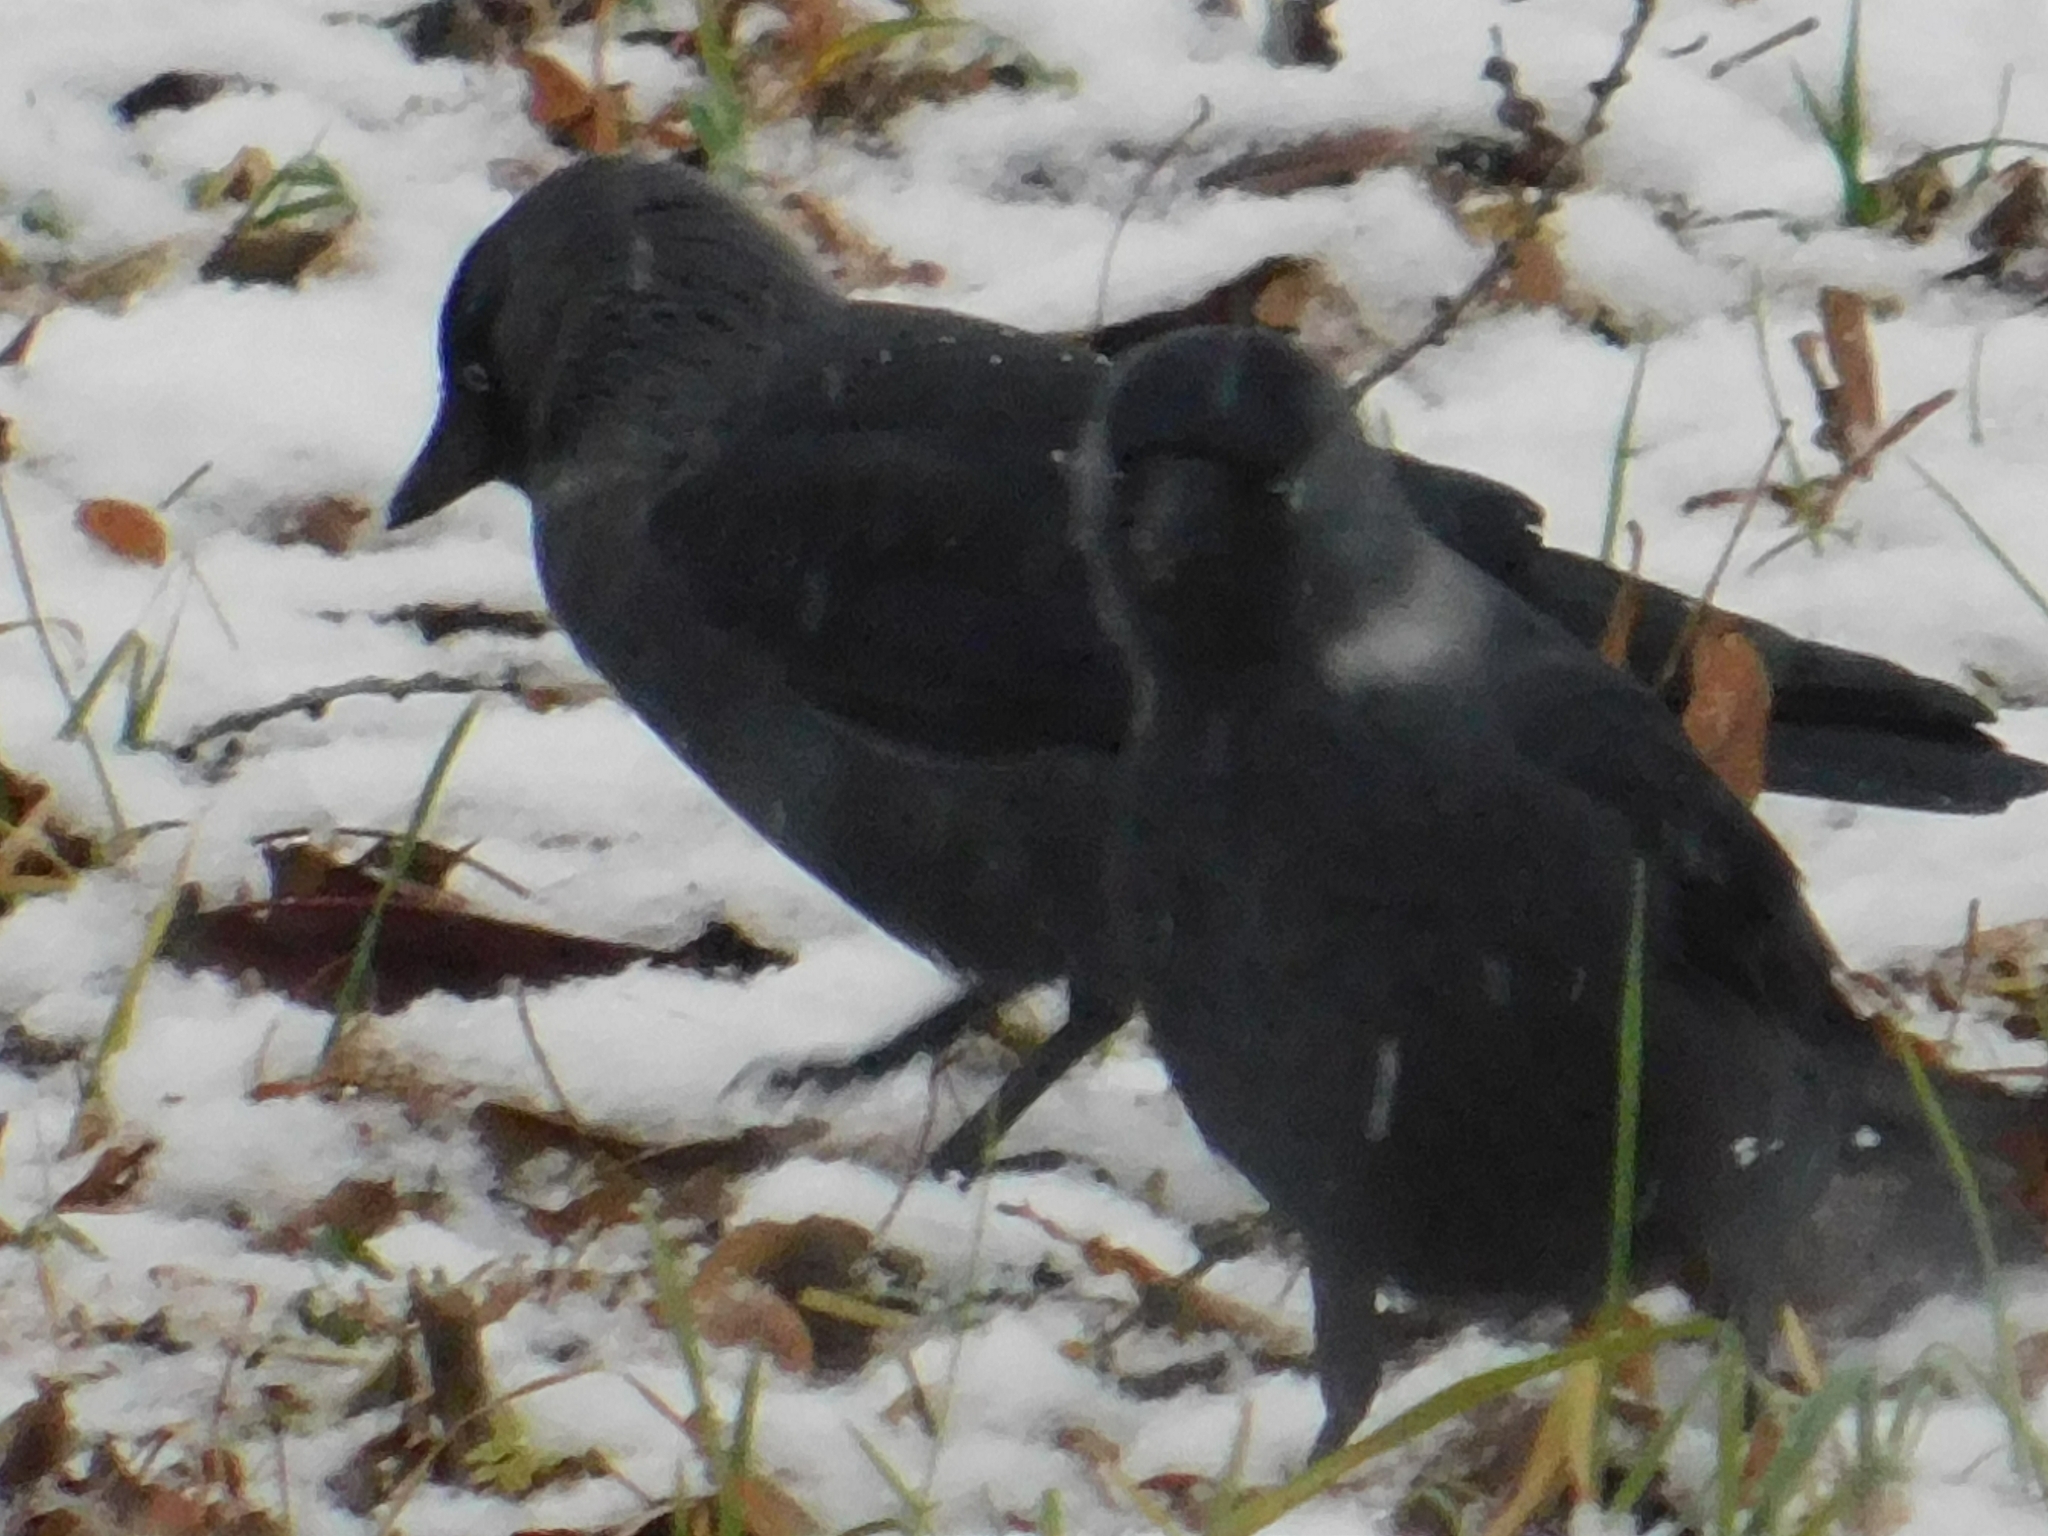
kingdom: Animalia
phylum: Chordata
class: Aves
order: Passeriformes
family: Corvidae
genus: Coloeus
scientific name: Coloeus monedula
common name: Western jackdaw
